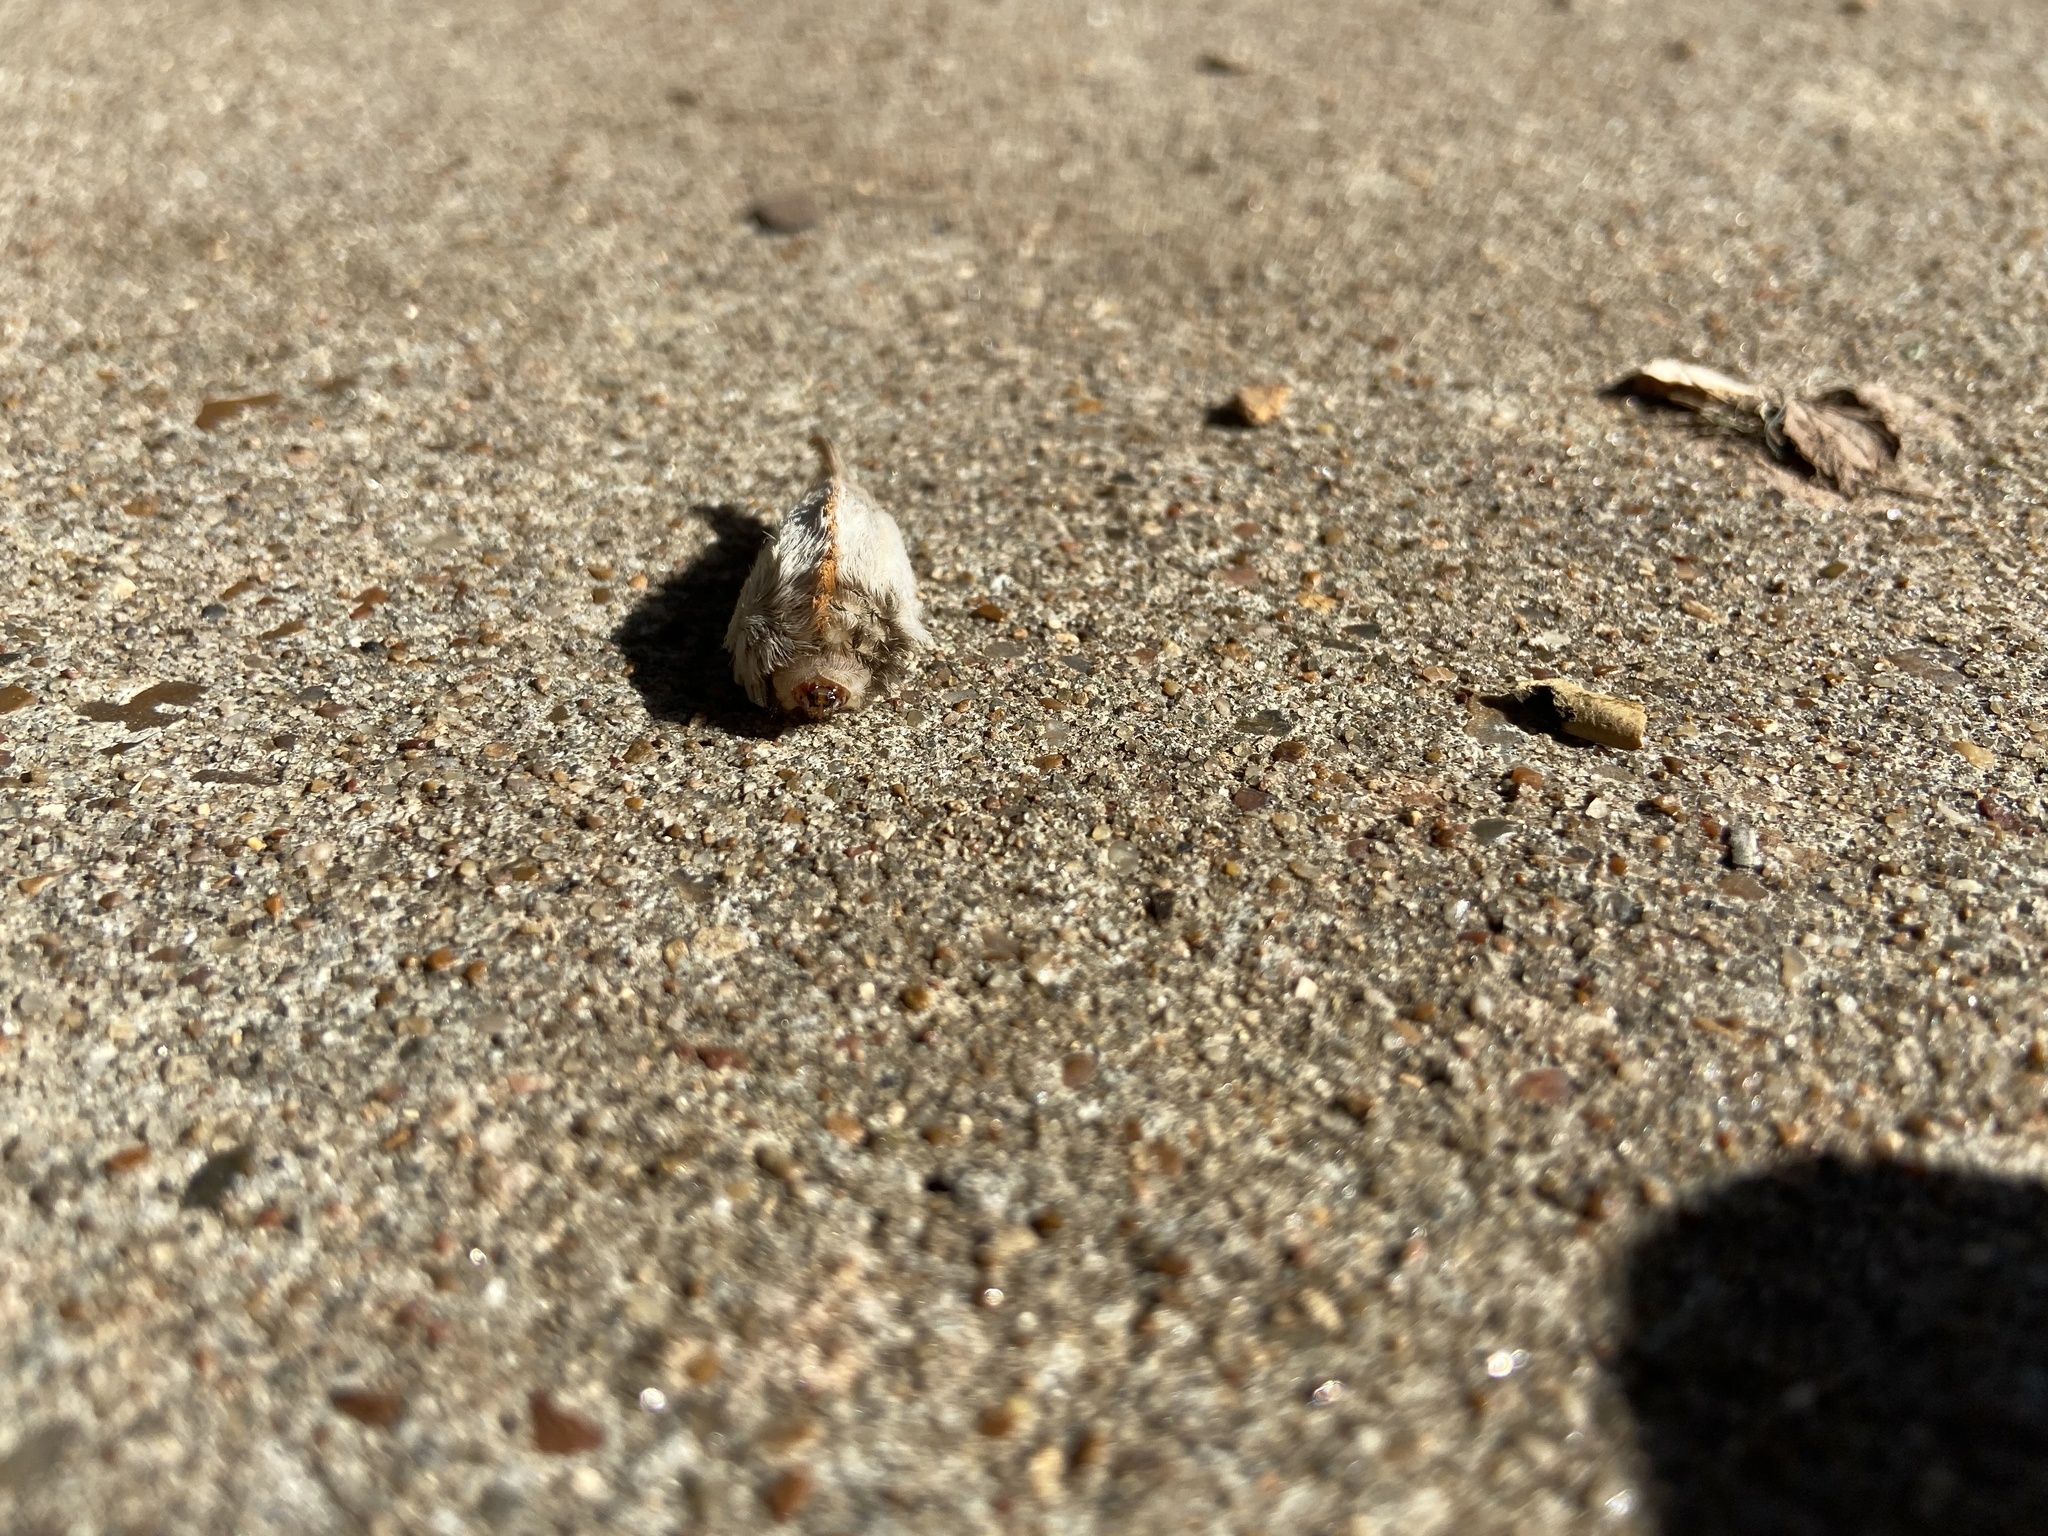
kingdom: Animalia
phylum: Arthropoda
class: Insecta
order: Lepidoptera
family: Megalopygidae
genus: Megalopyge
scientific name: Megalopyge opercularis
